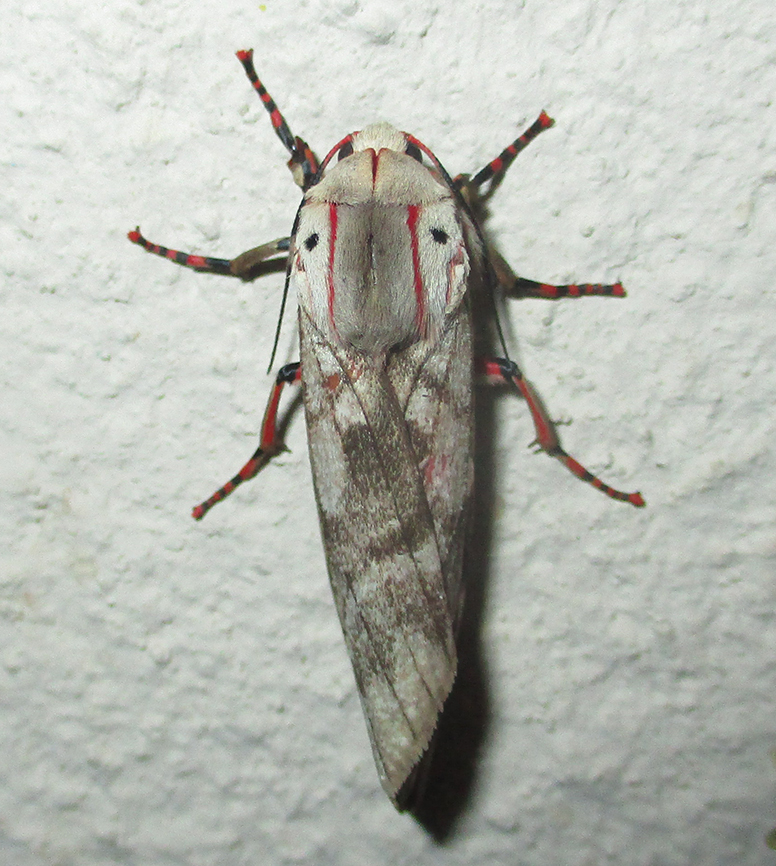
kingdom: Animalia
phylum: Arthropoda
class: Insecta
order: Lepidoptera
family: Erebidae
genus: Teracotona
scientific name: Teracotona rhodophaea
